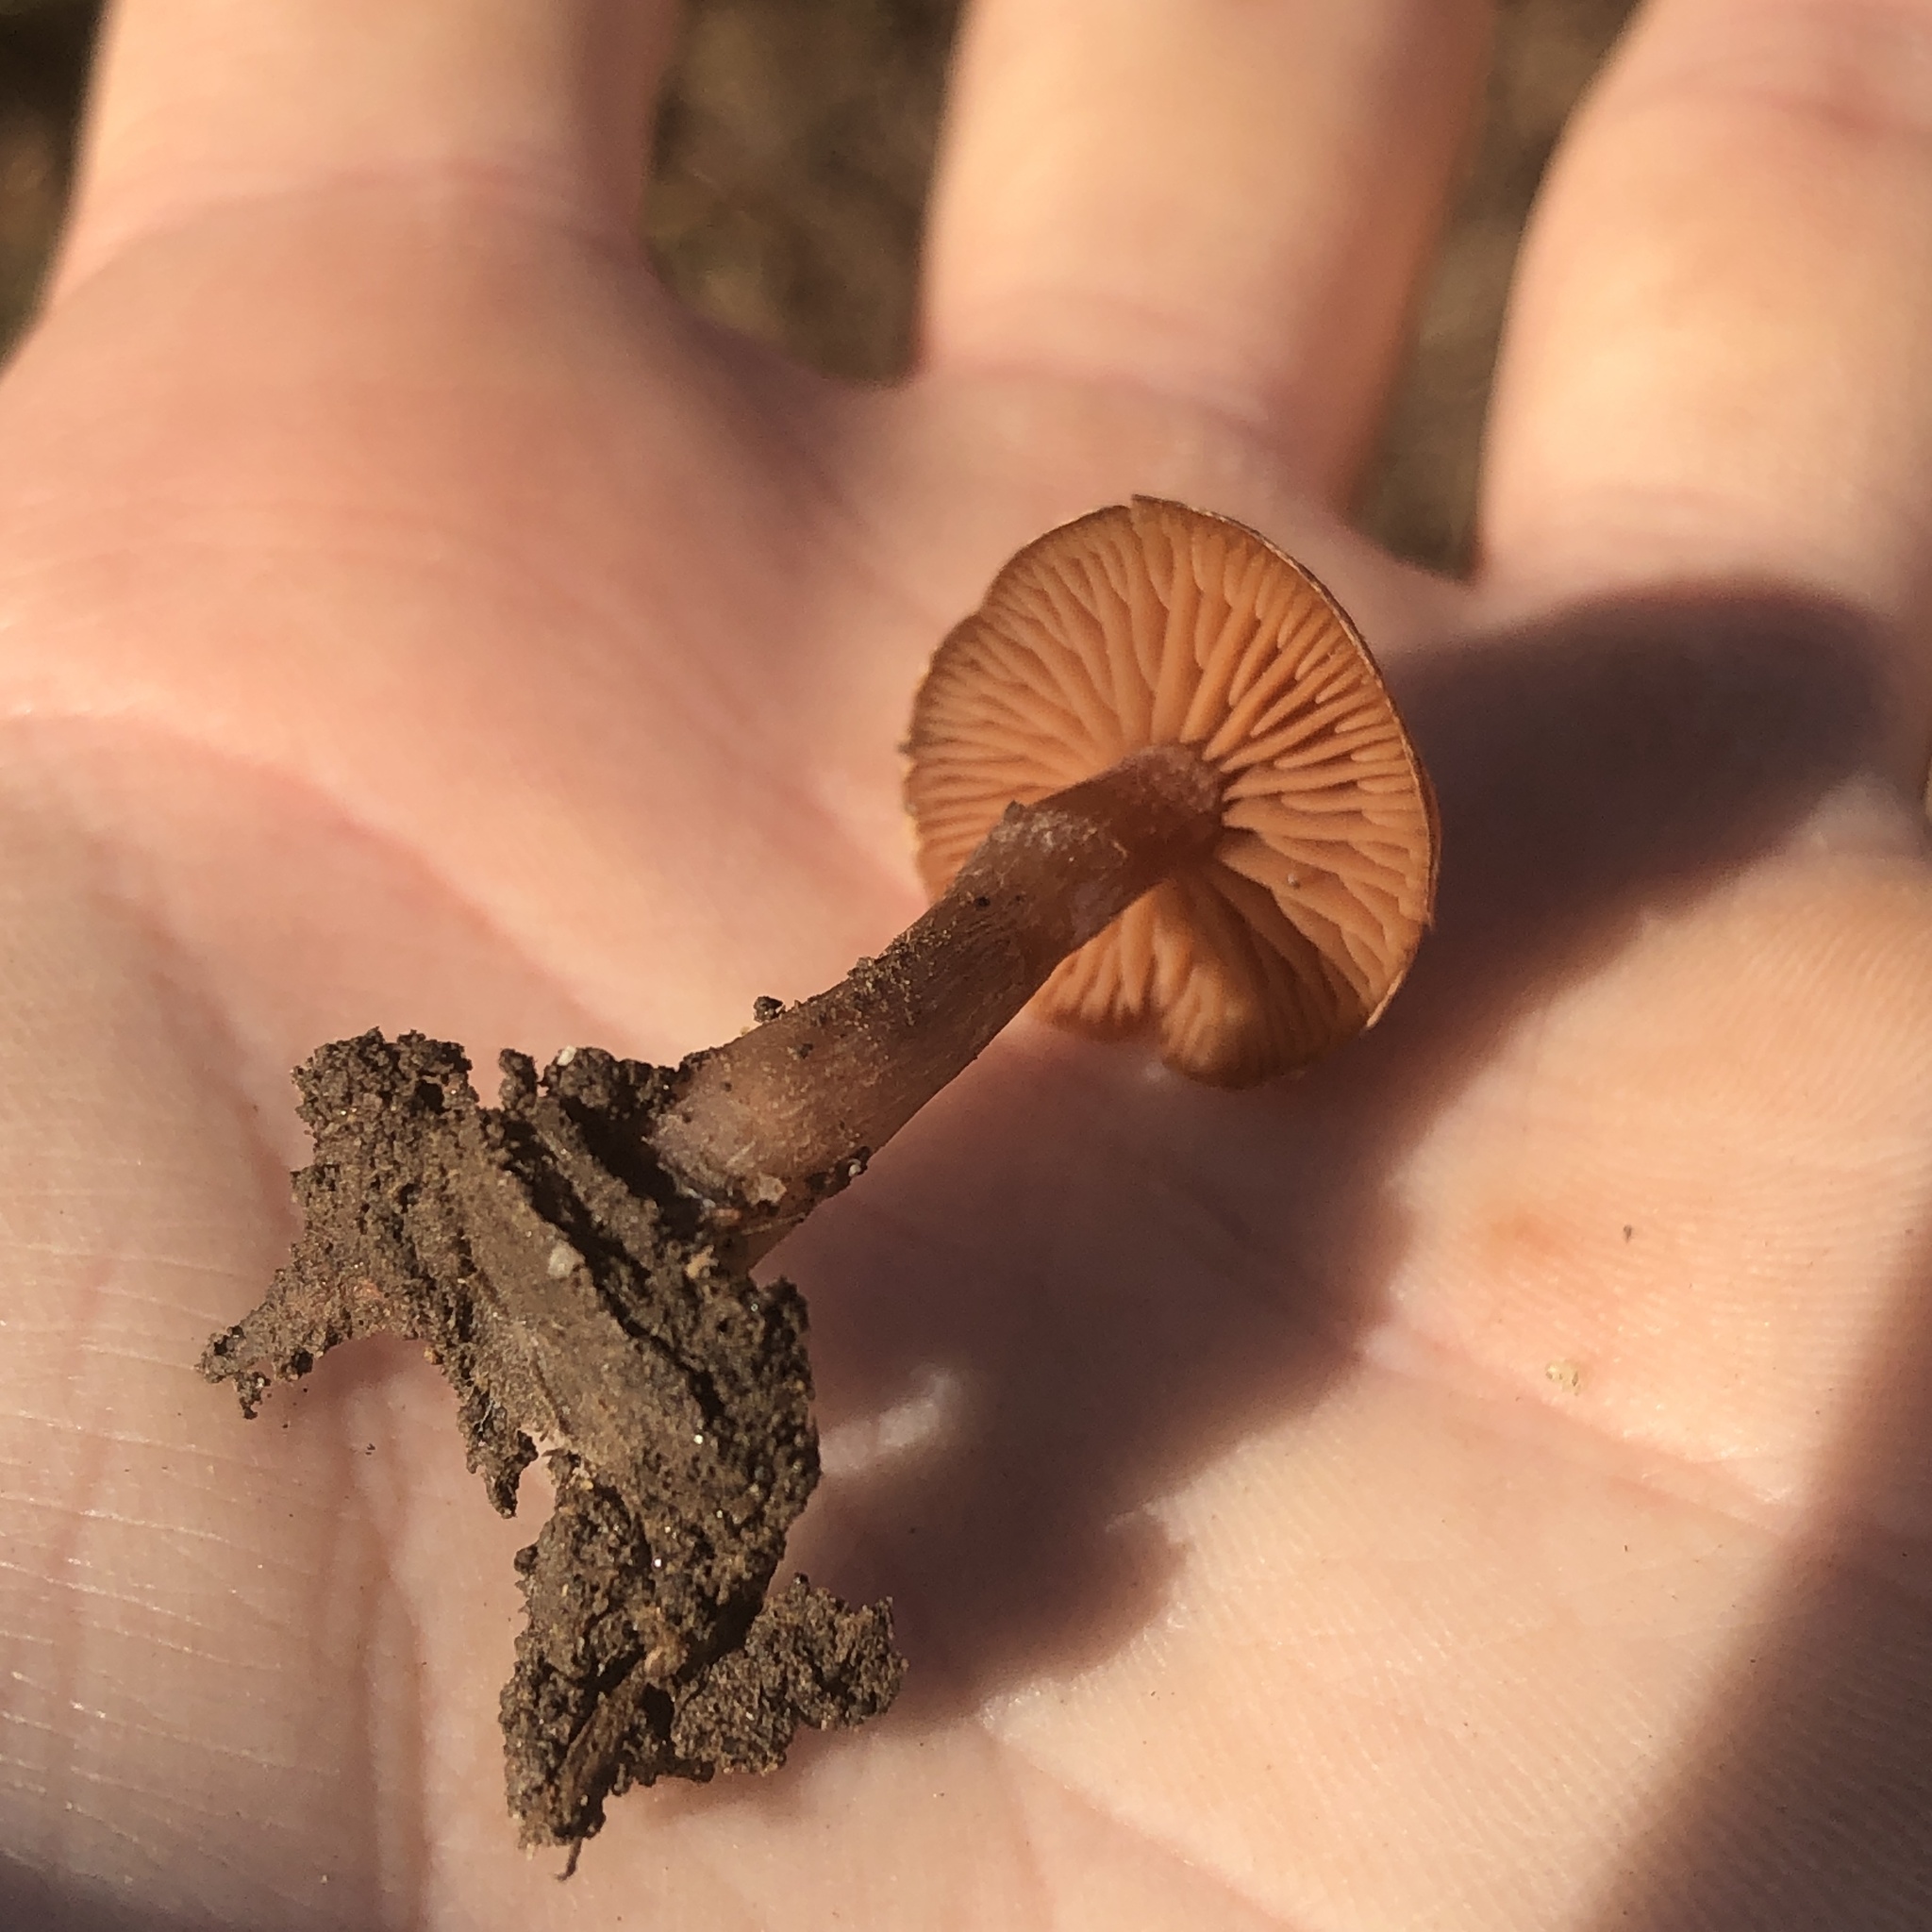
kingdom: Fungi
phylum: Basidiomycota
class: Agaricomycetes
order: Agaricales
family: Tubariaceae
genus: Tubaria
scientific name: Tubaria furfuracea
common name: Scurfy twiglet
